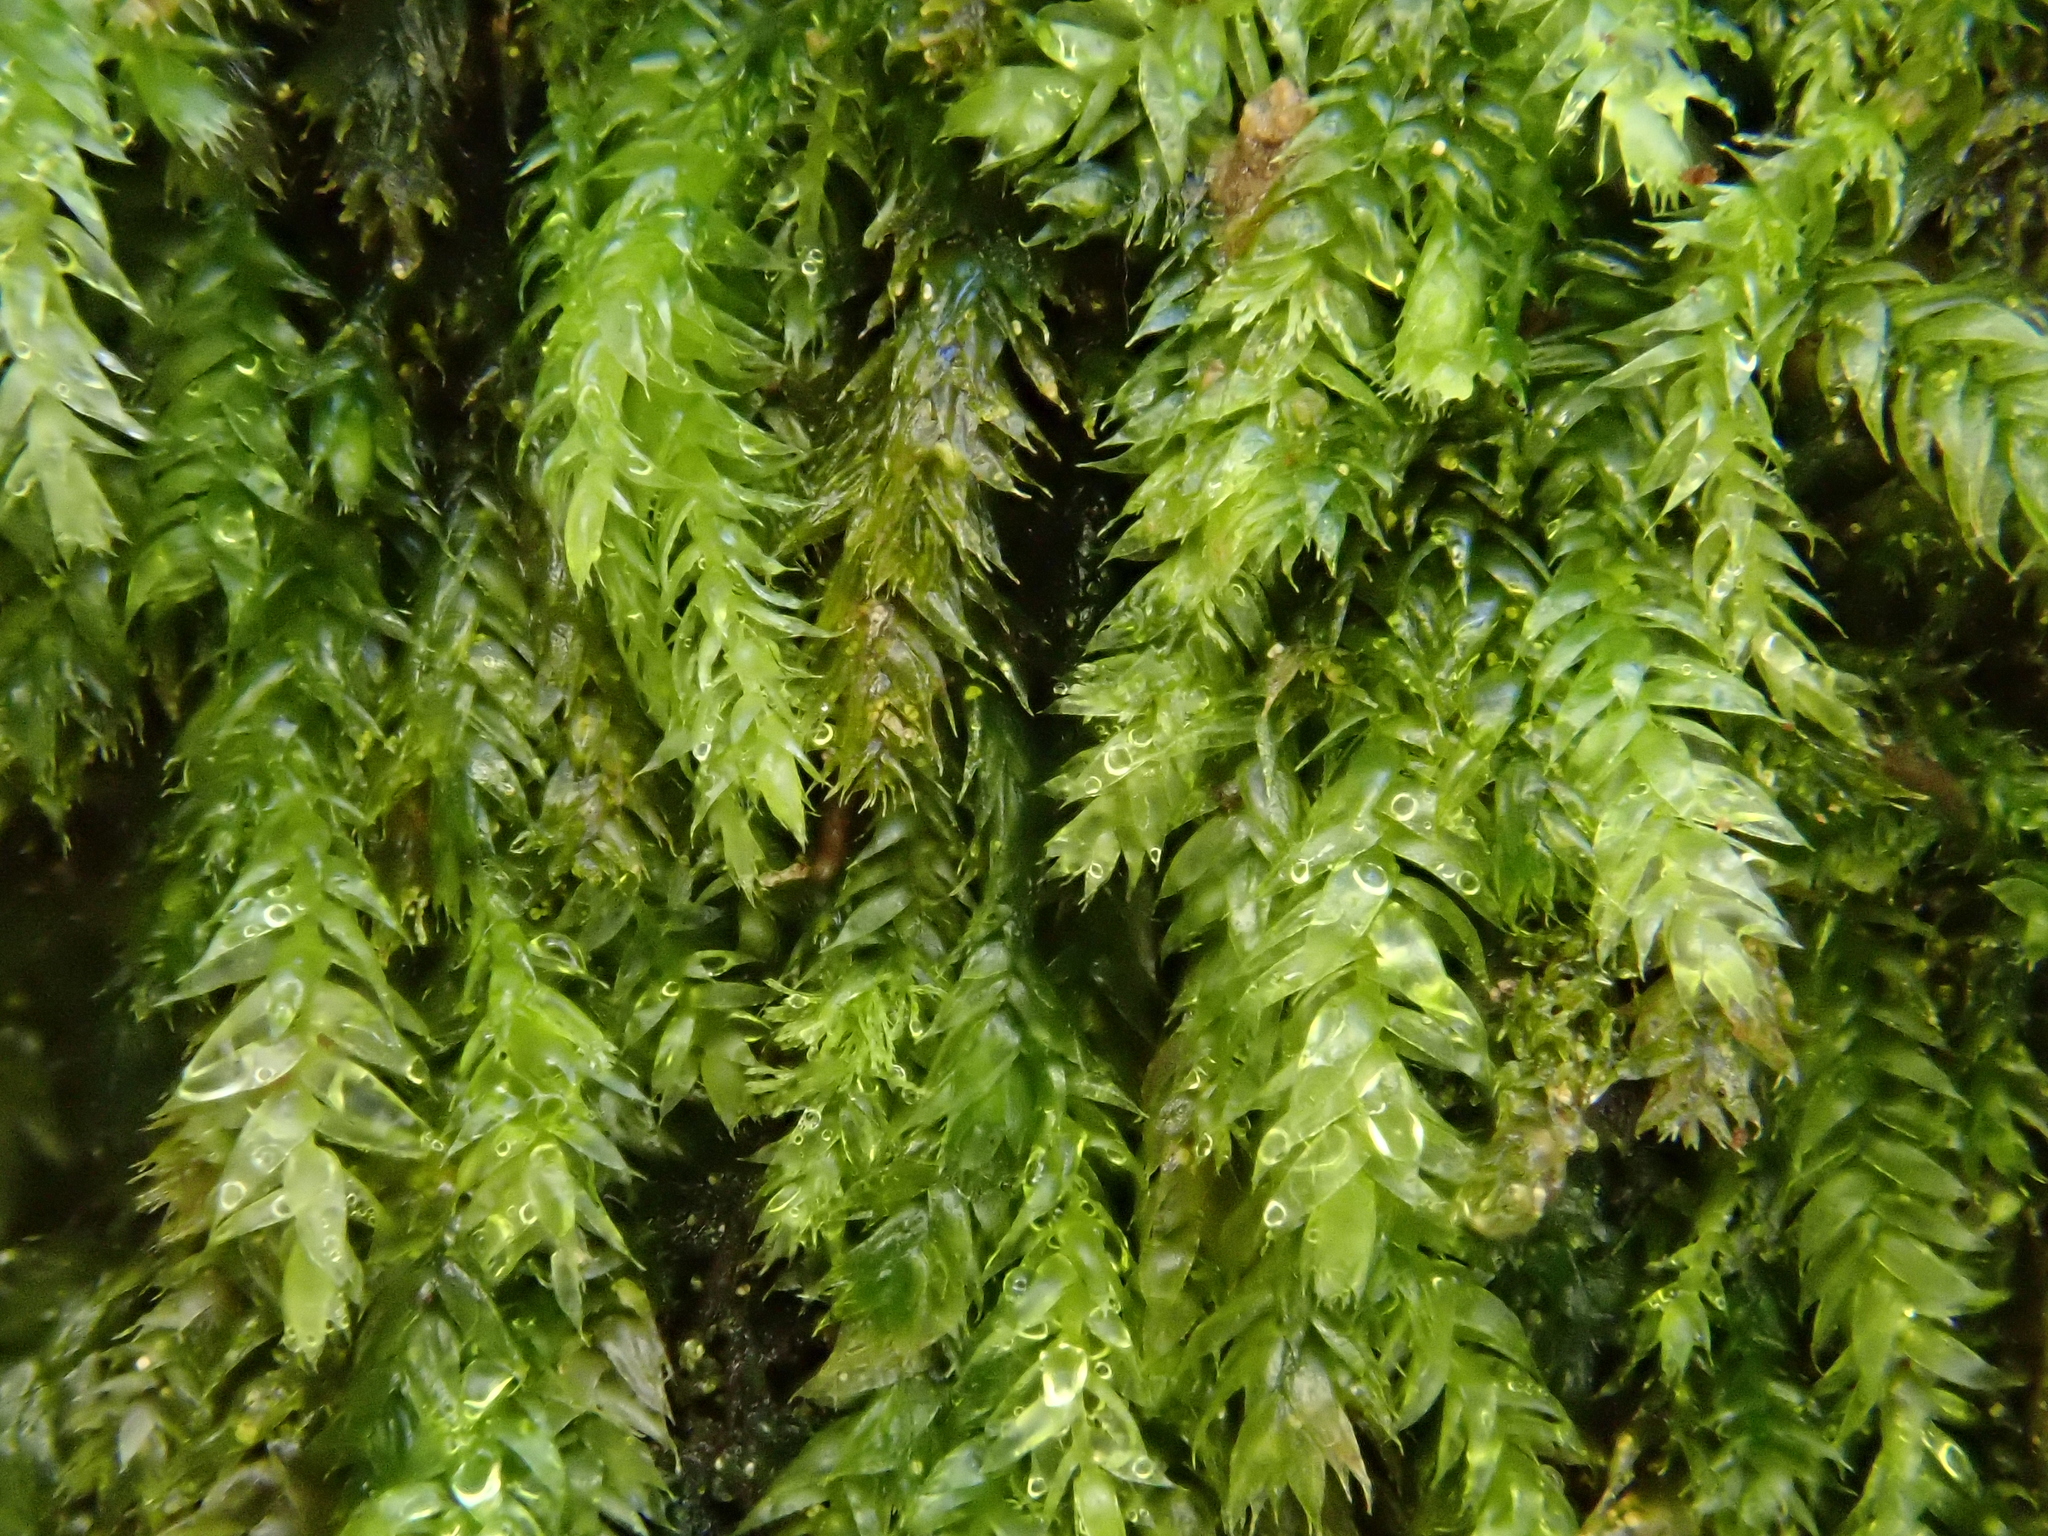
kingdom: Plantae
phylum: Bryophyta
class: Bryopsida
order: Hypnales
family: Plagiotheciaceae
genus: Pseudotaxiphyllum
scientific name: Pseudotaxiphyllum elegans
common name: Elegant silk moss
